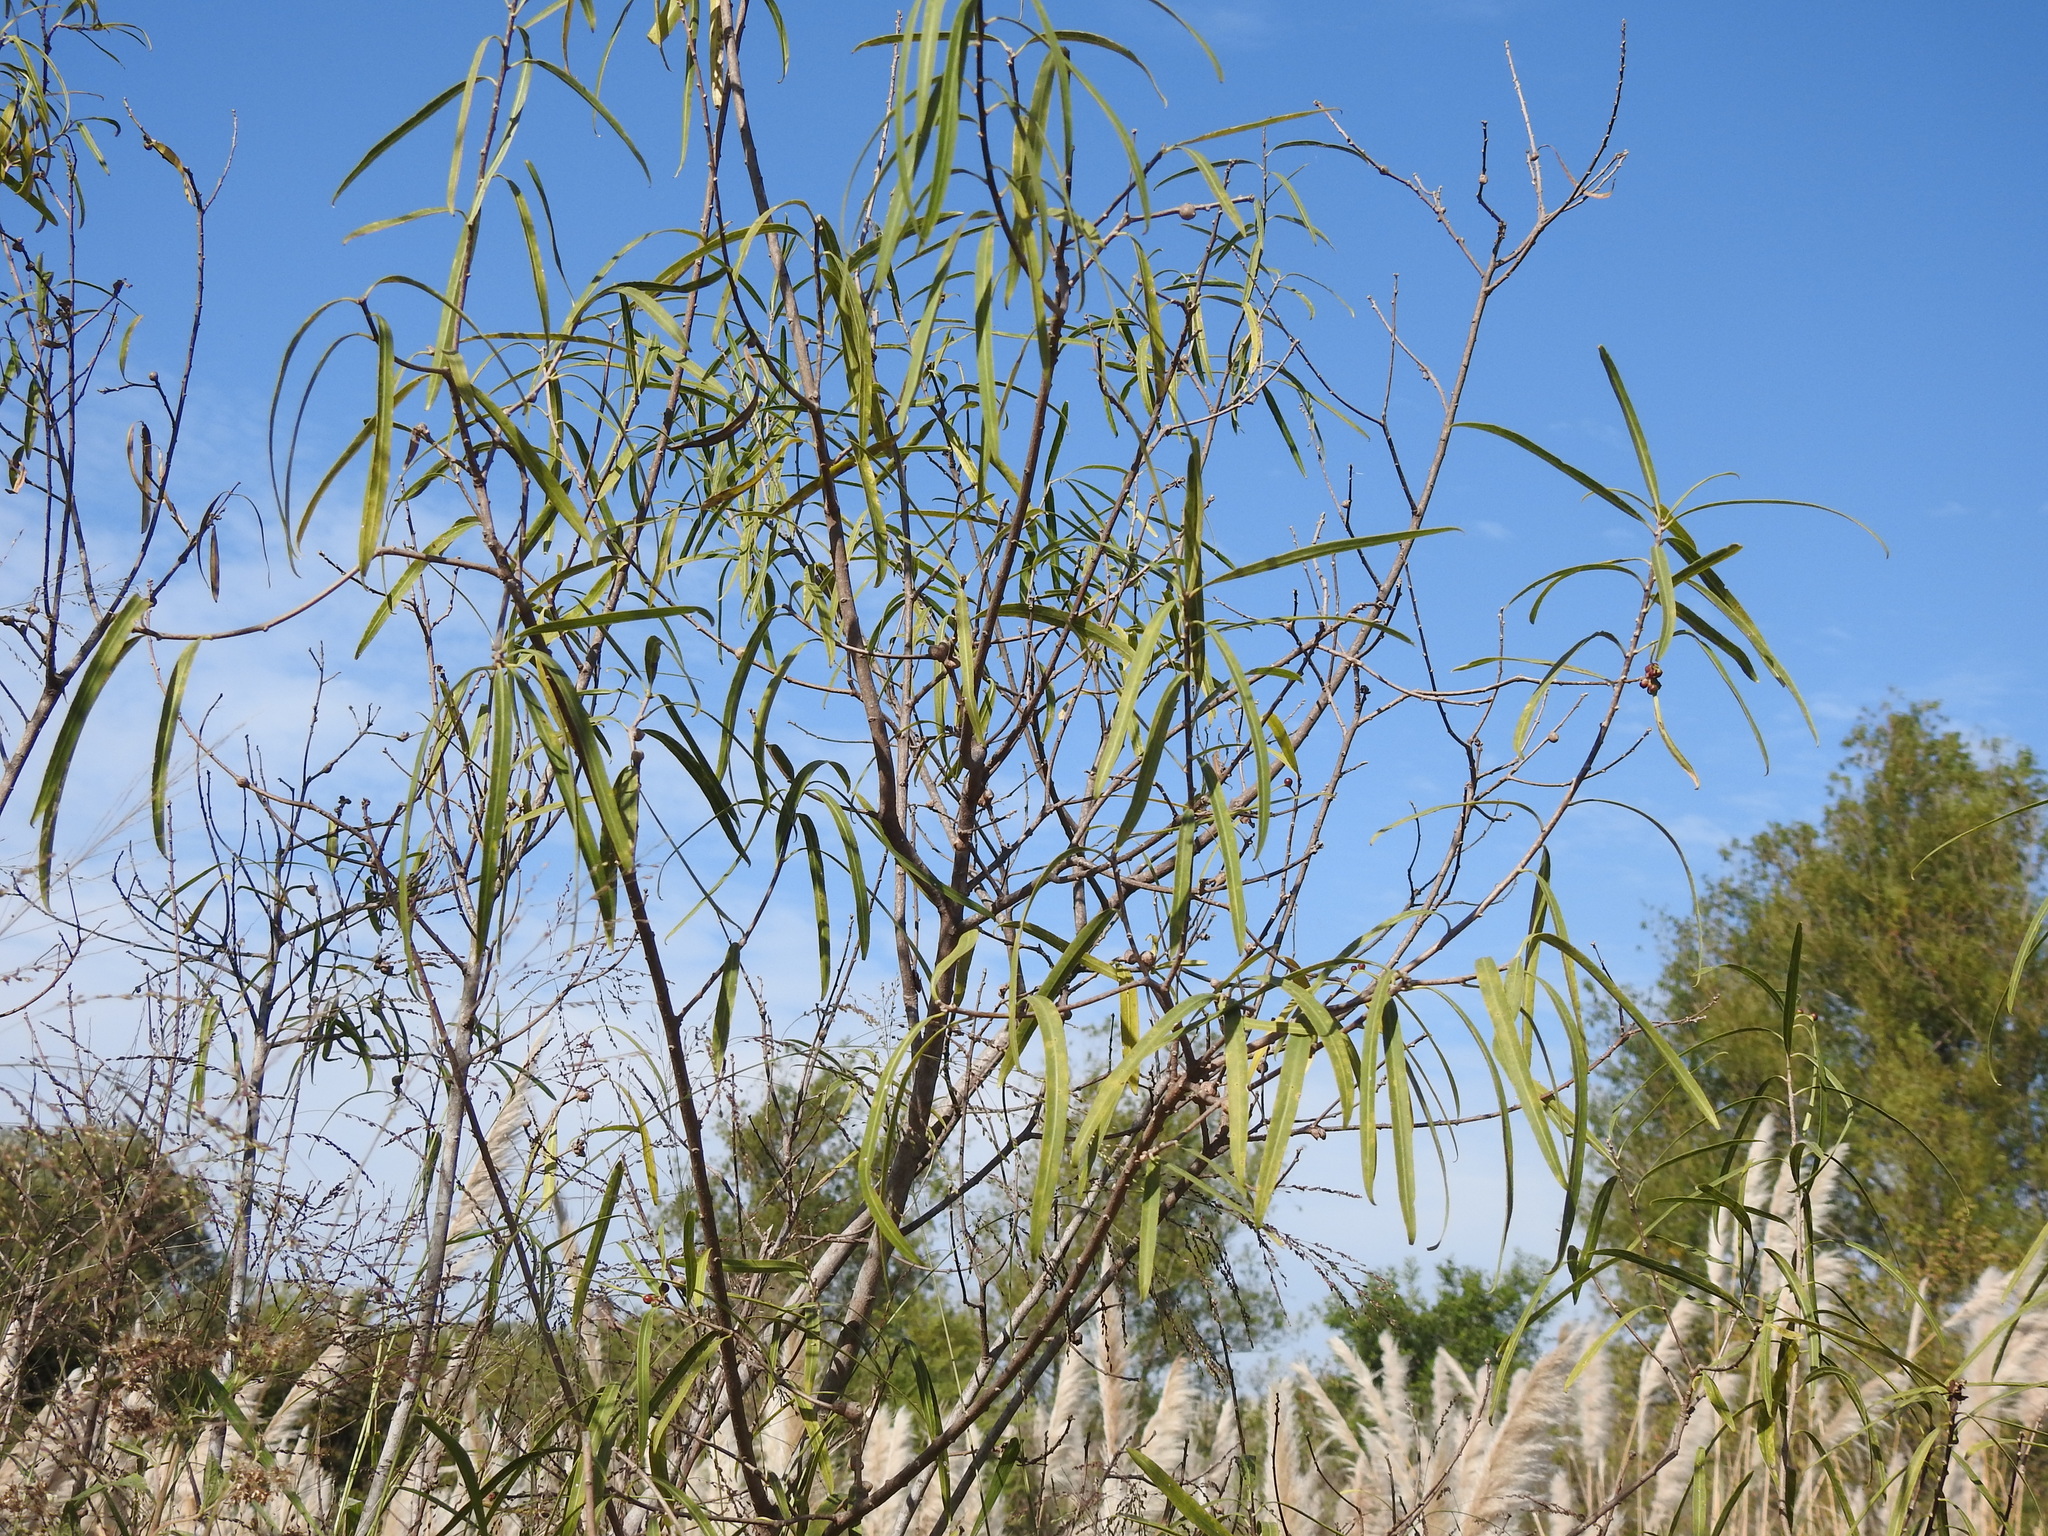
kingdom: Plantae
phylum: Tracheophyta
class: Magnoliopsida
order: Malpighiales
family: Euphorbiaceae
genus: Sapium
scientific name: Sapium haematospermum
